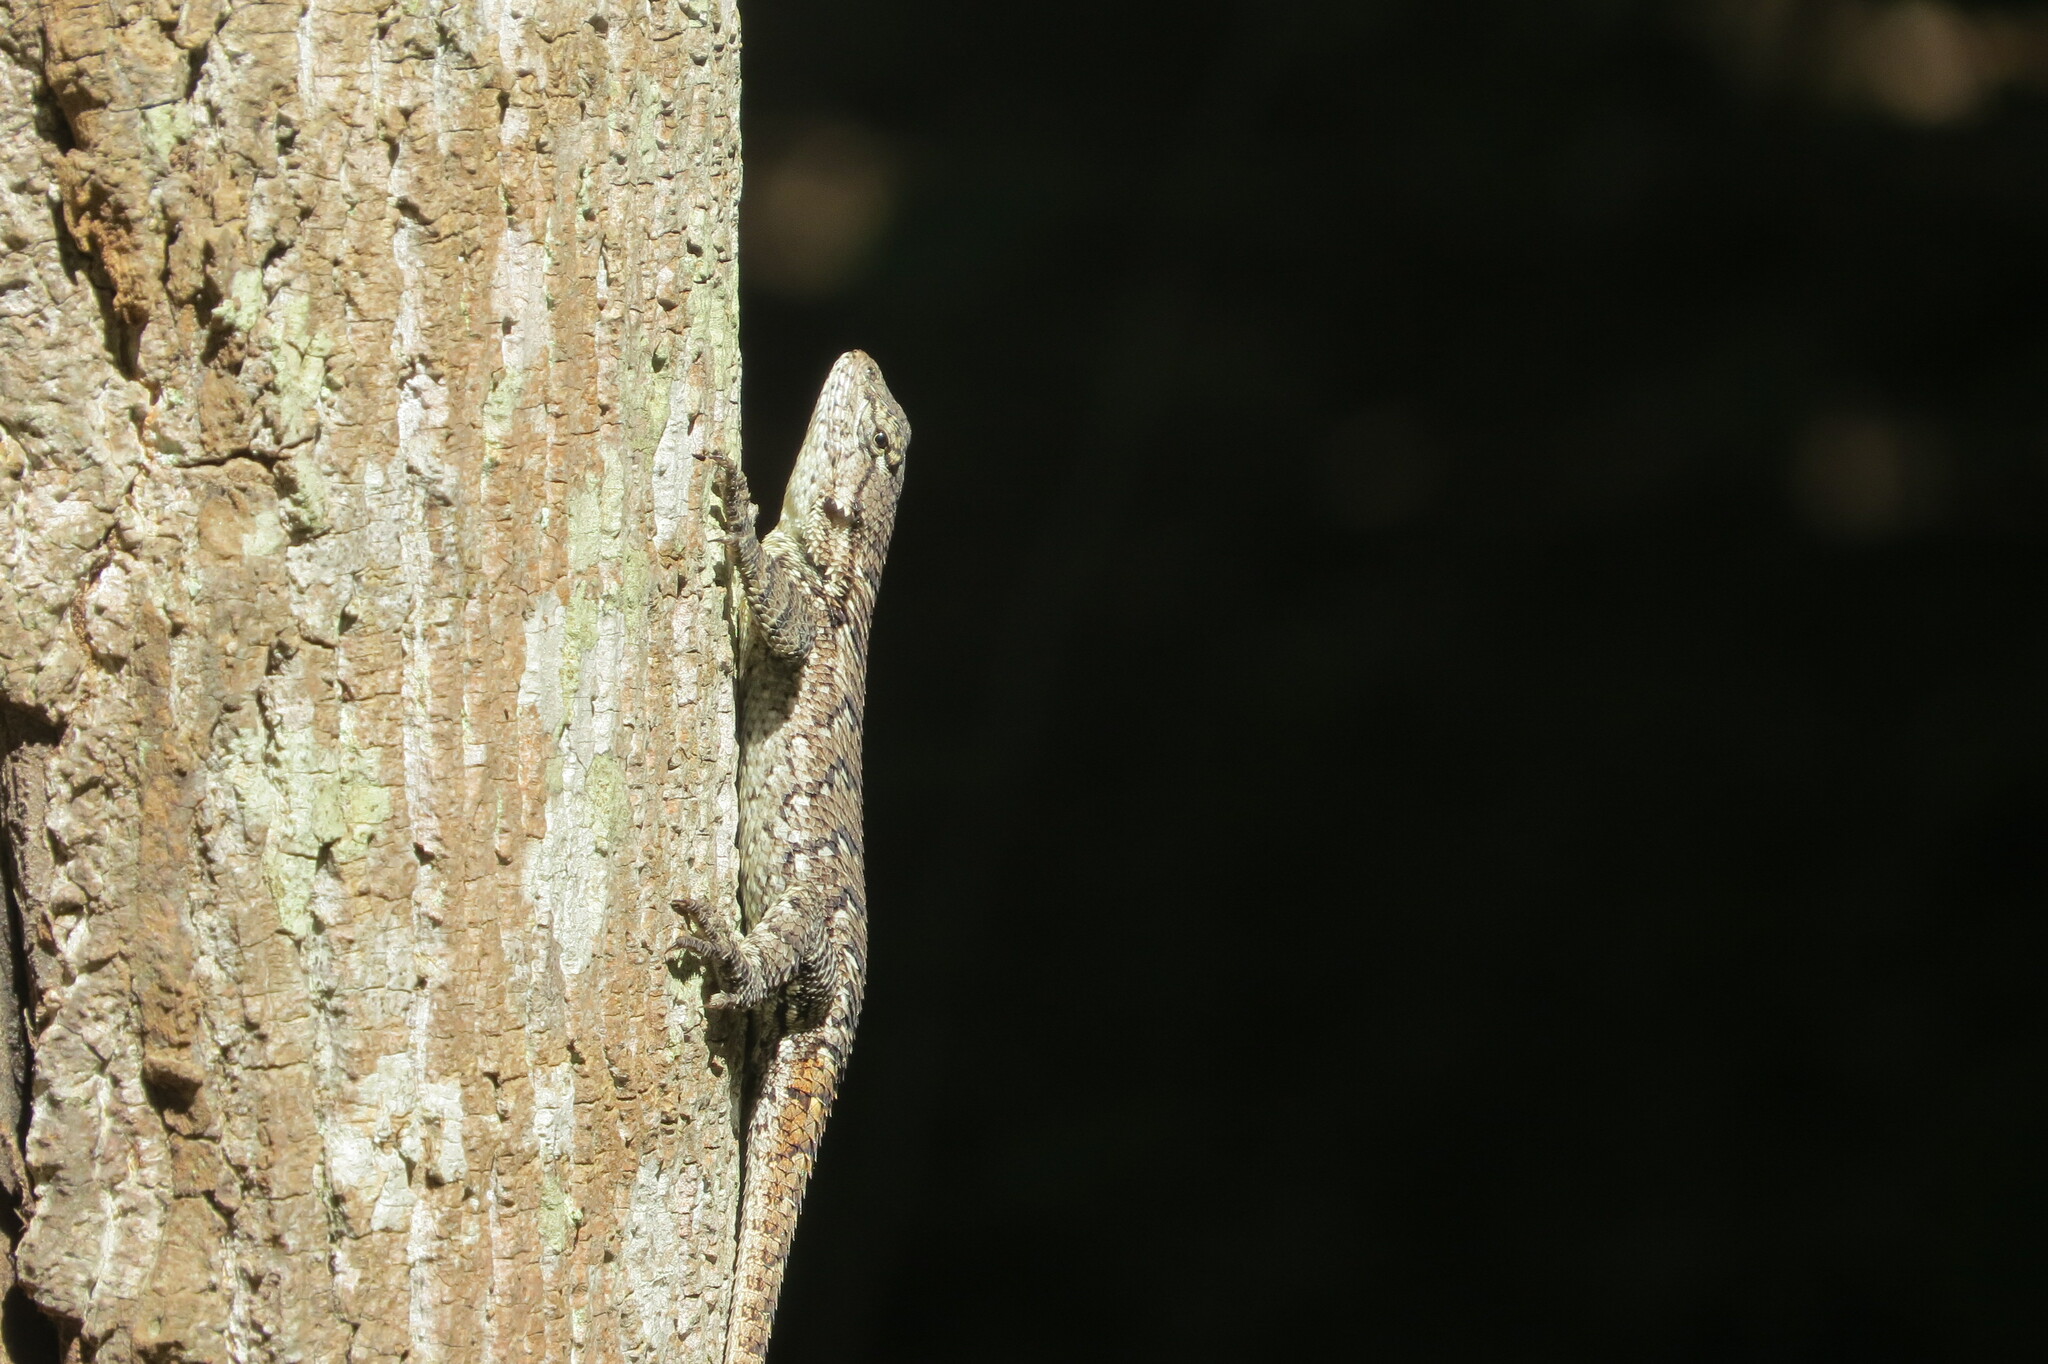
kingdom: Animalia
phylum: Chordata
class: Squamata
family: Phrynosomatidae
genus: Sceloporus
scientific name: Sceloporus undulatus
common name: Eastern fence lizard
